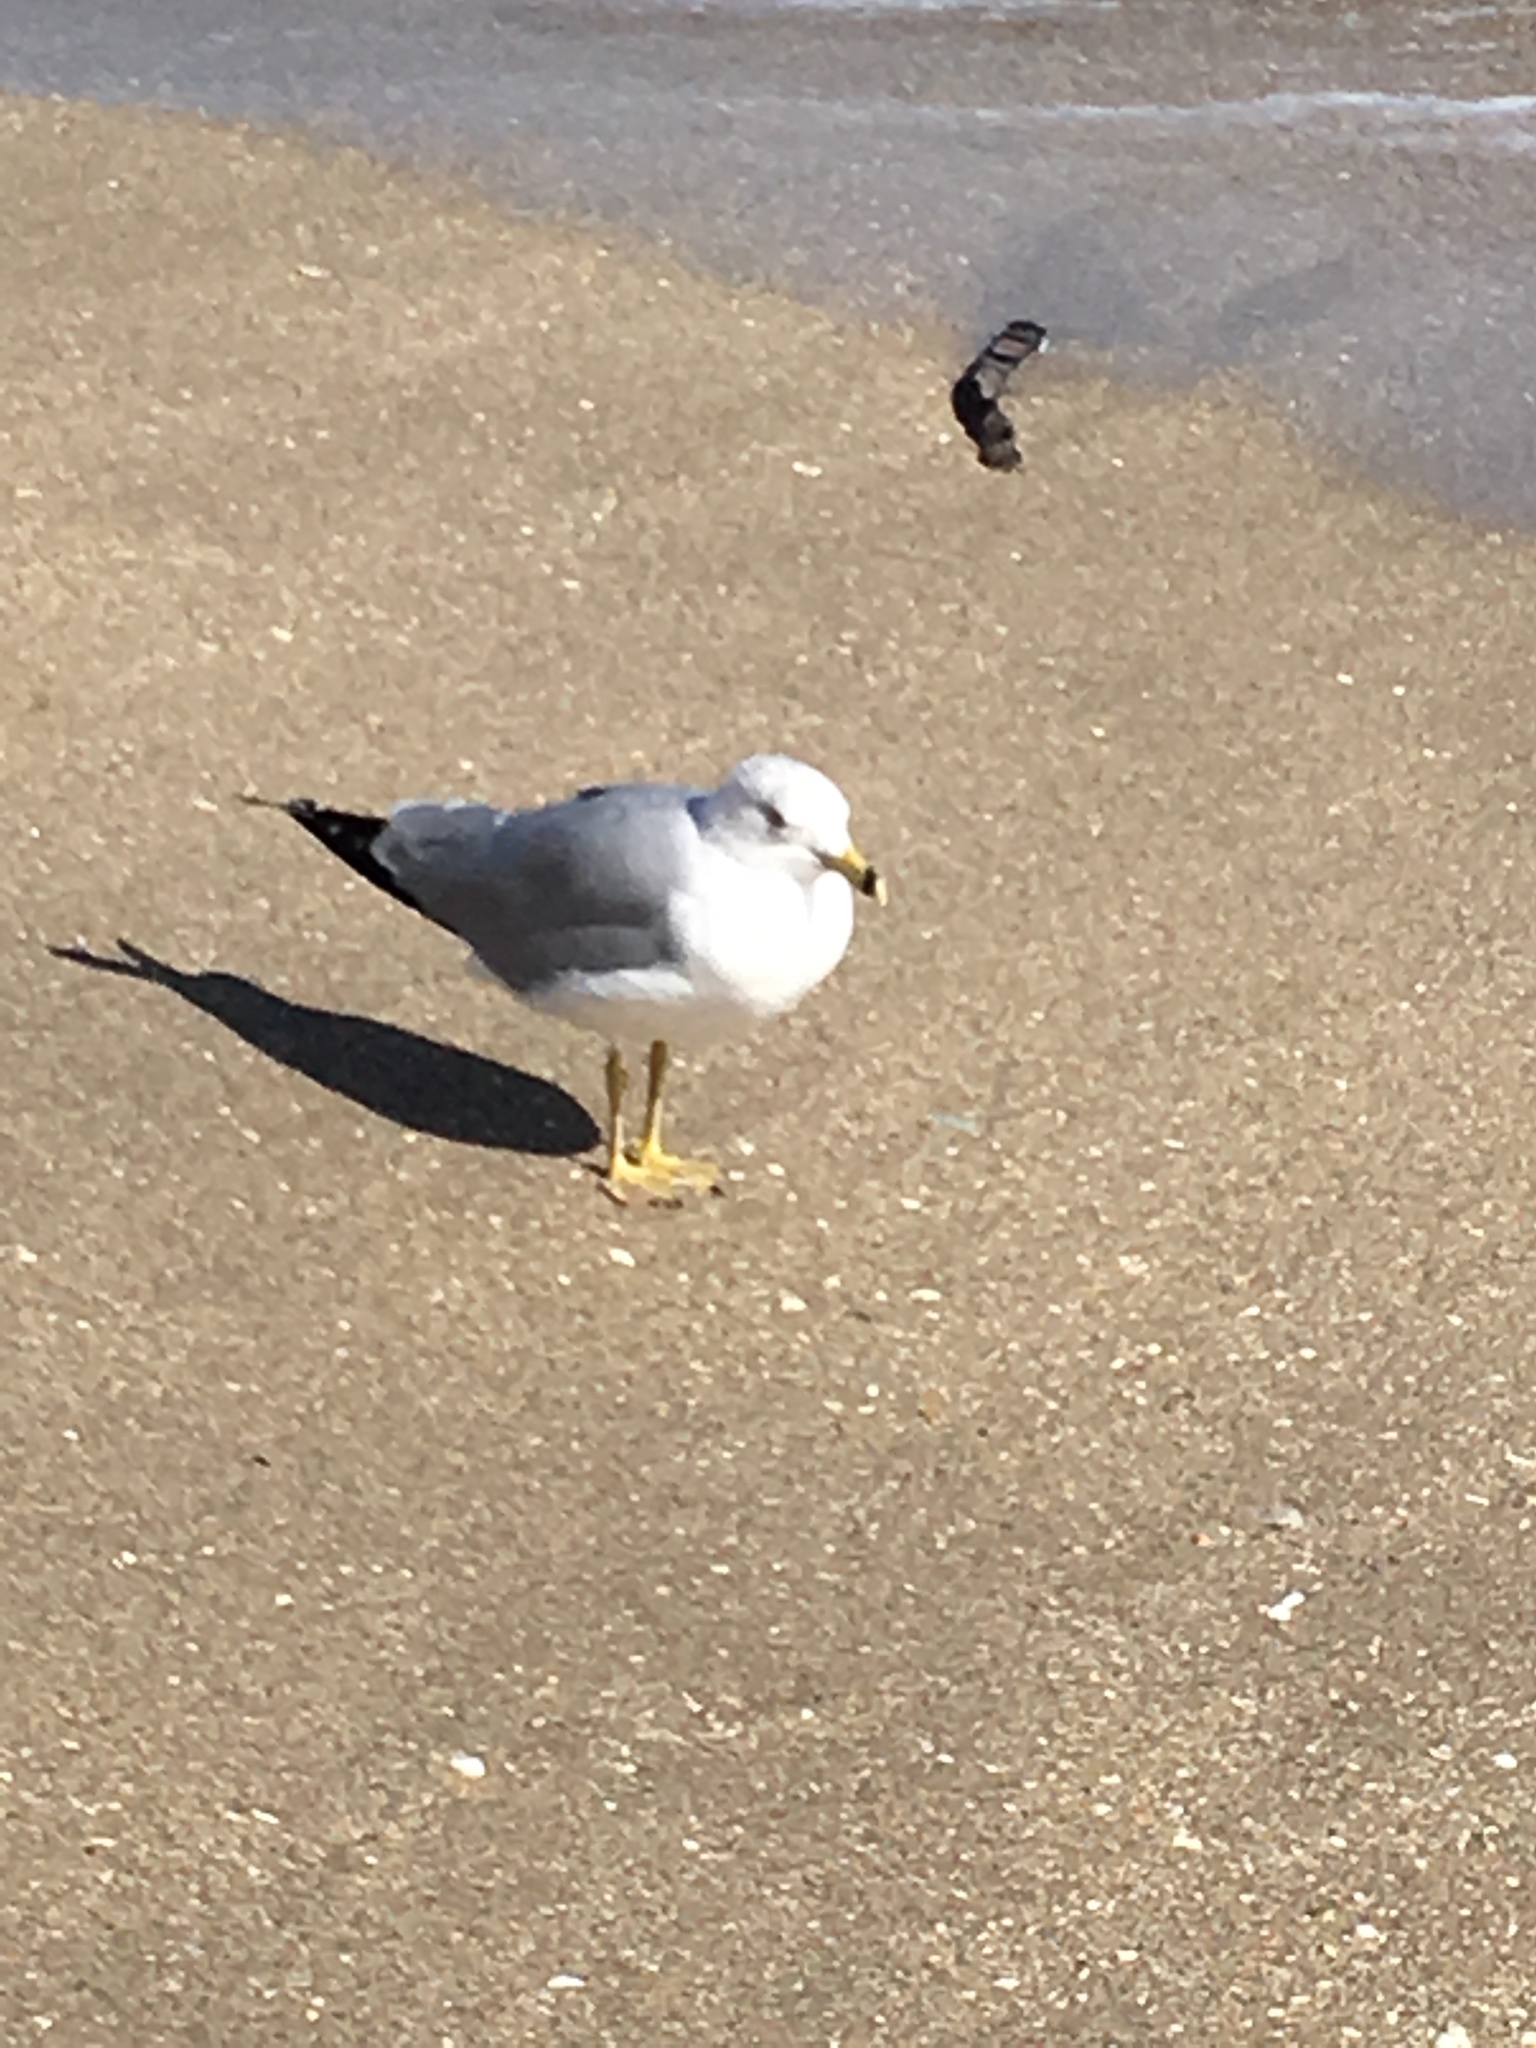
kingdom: Animalia
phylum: Chordata
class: Aves
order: Charadriiformes
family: Laridae
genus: Larus
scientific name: Larus delawarensis
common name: Ring-billed gull
